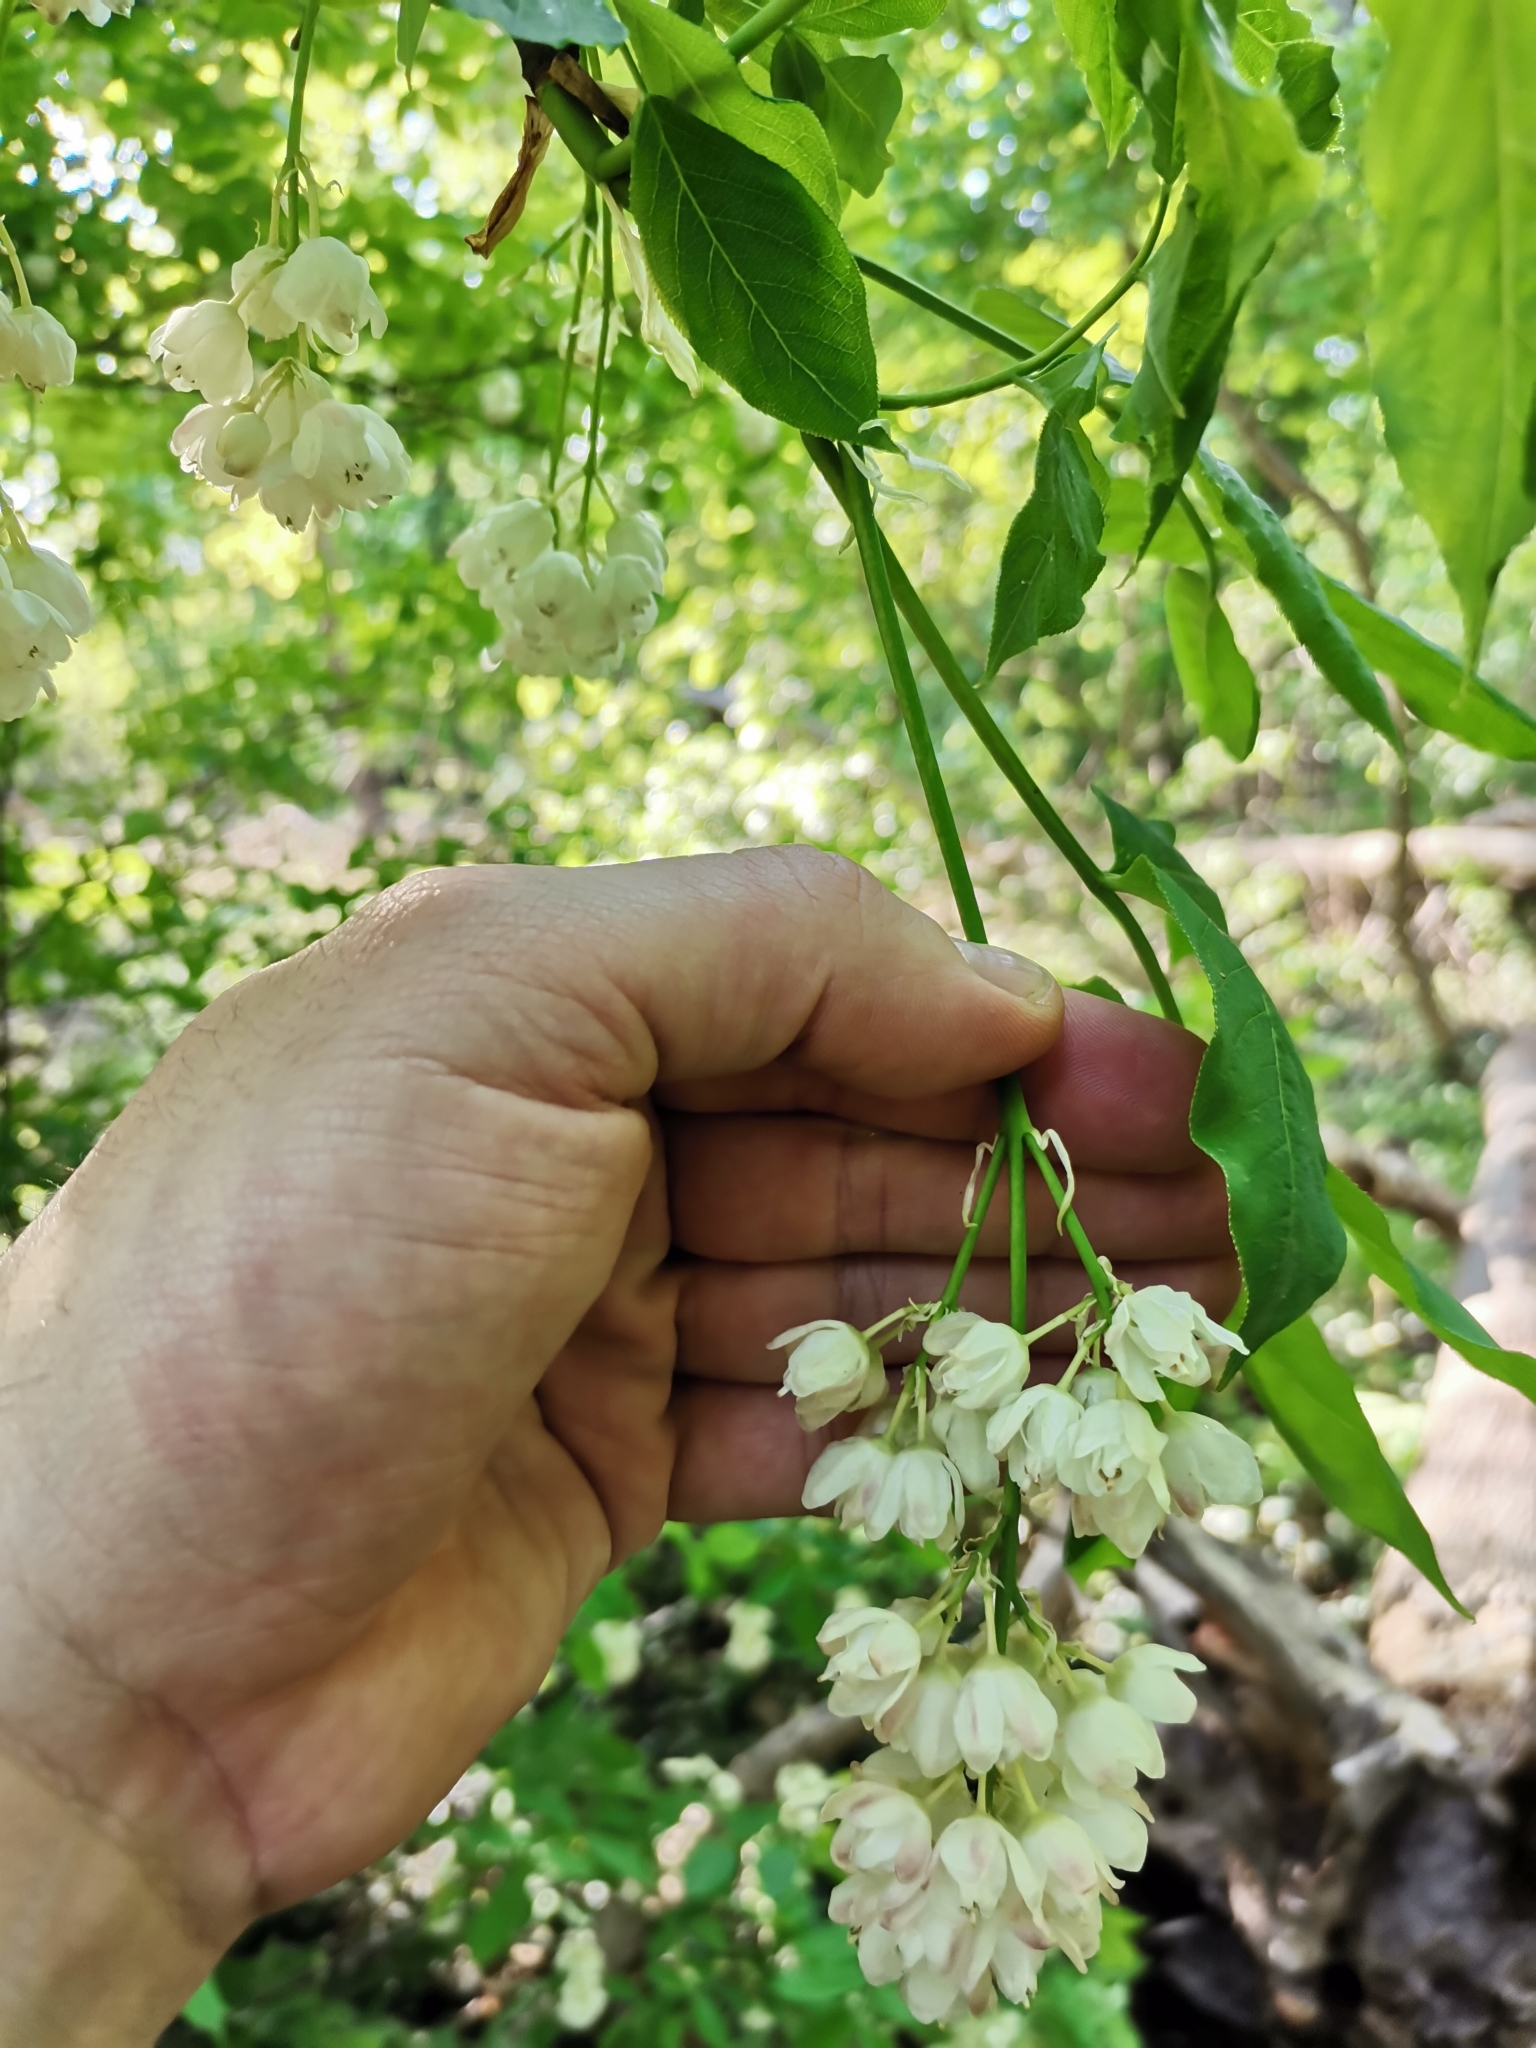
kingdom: Plantae
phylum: Tracheophyta
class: Magnoliopsida
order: Crossosomatales
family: Staphyleaceae
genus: Staphylea
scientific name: Staphylea pinnata
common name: Bladdernut
